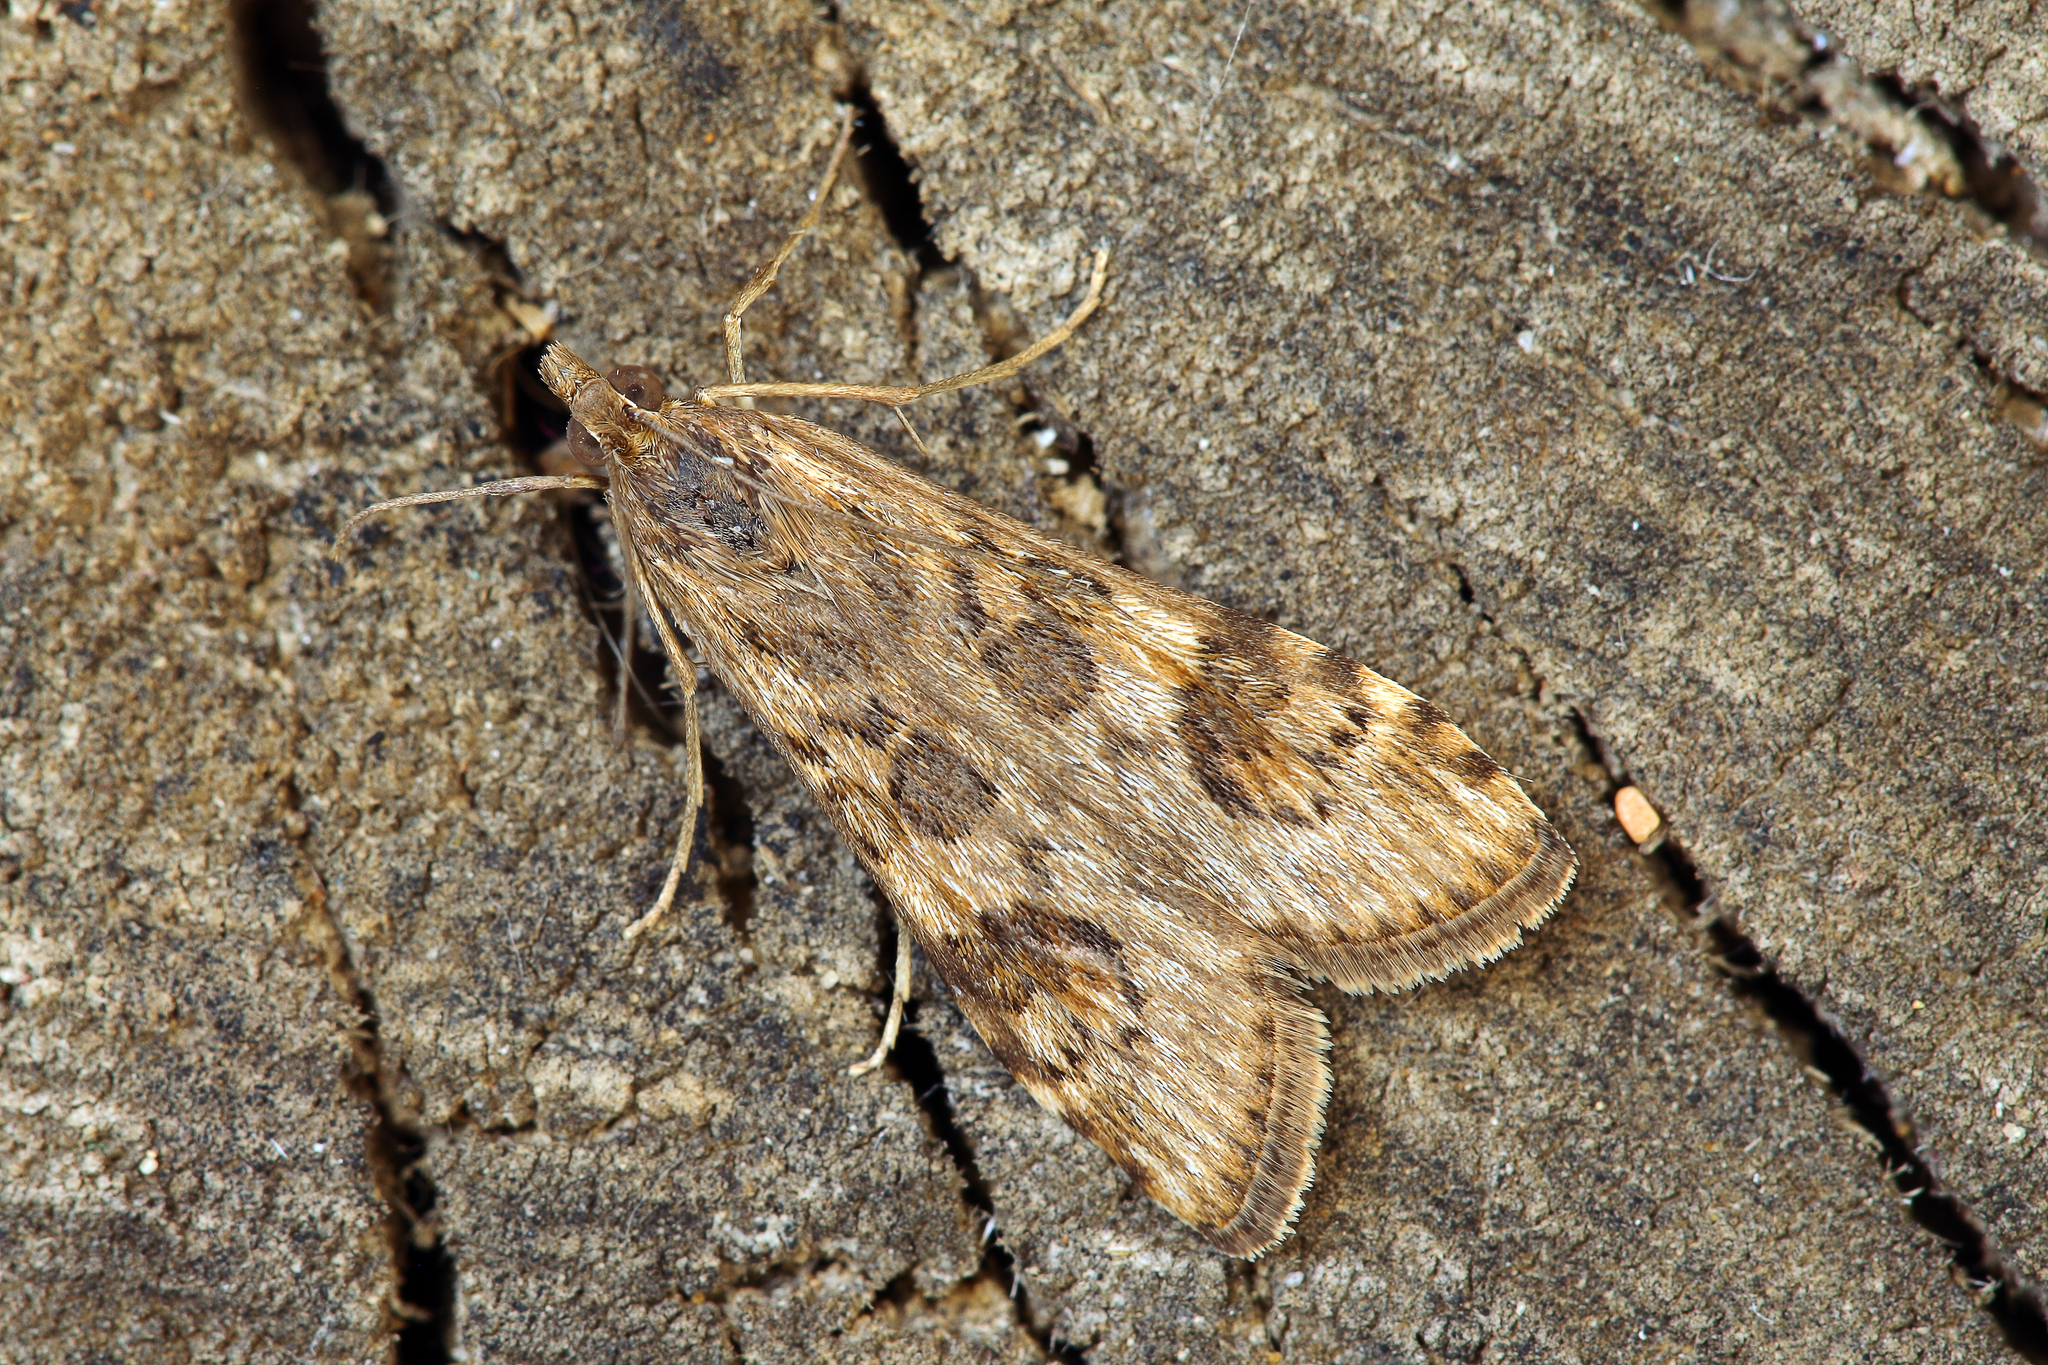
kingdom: Animalia
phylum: Arthropoda
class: Insecta
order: Lepidoptera
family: Crambidae
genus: Nomophila
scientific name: Nomophila noctuella
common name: Rush veneer
